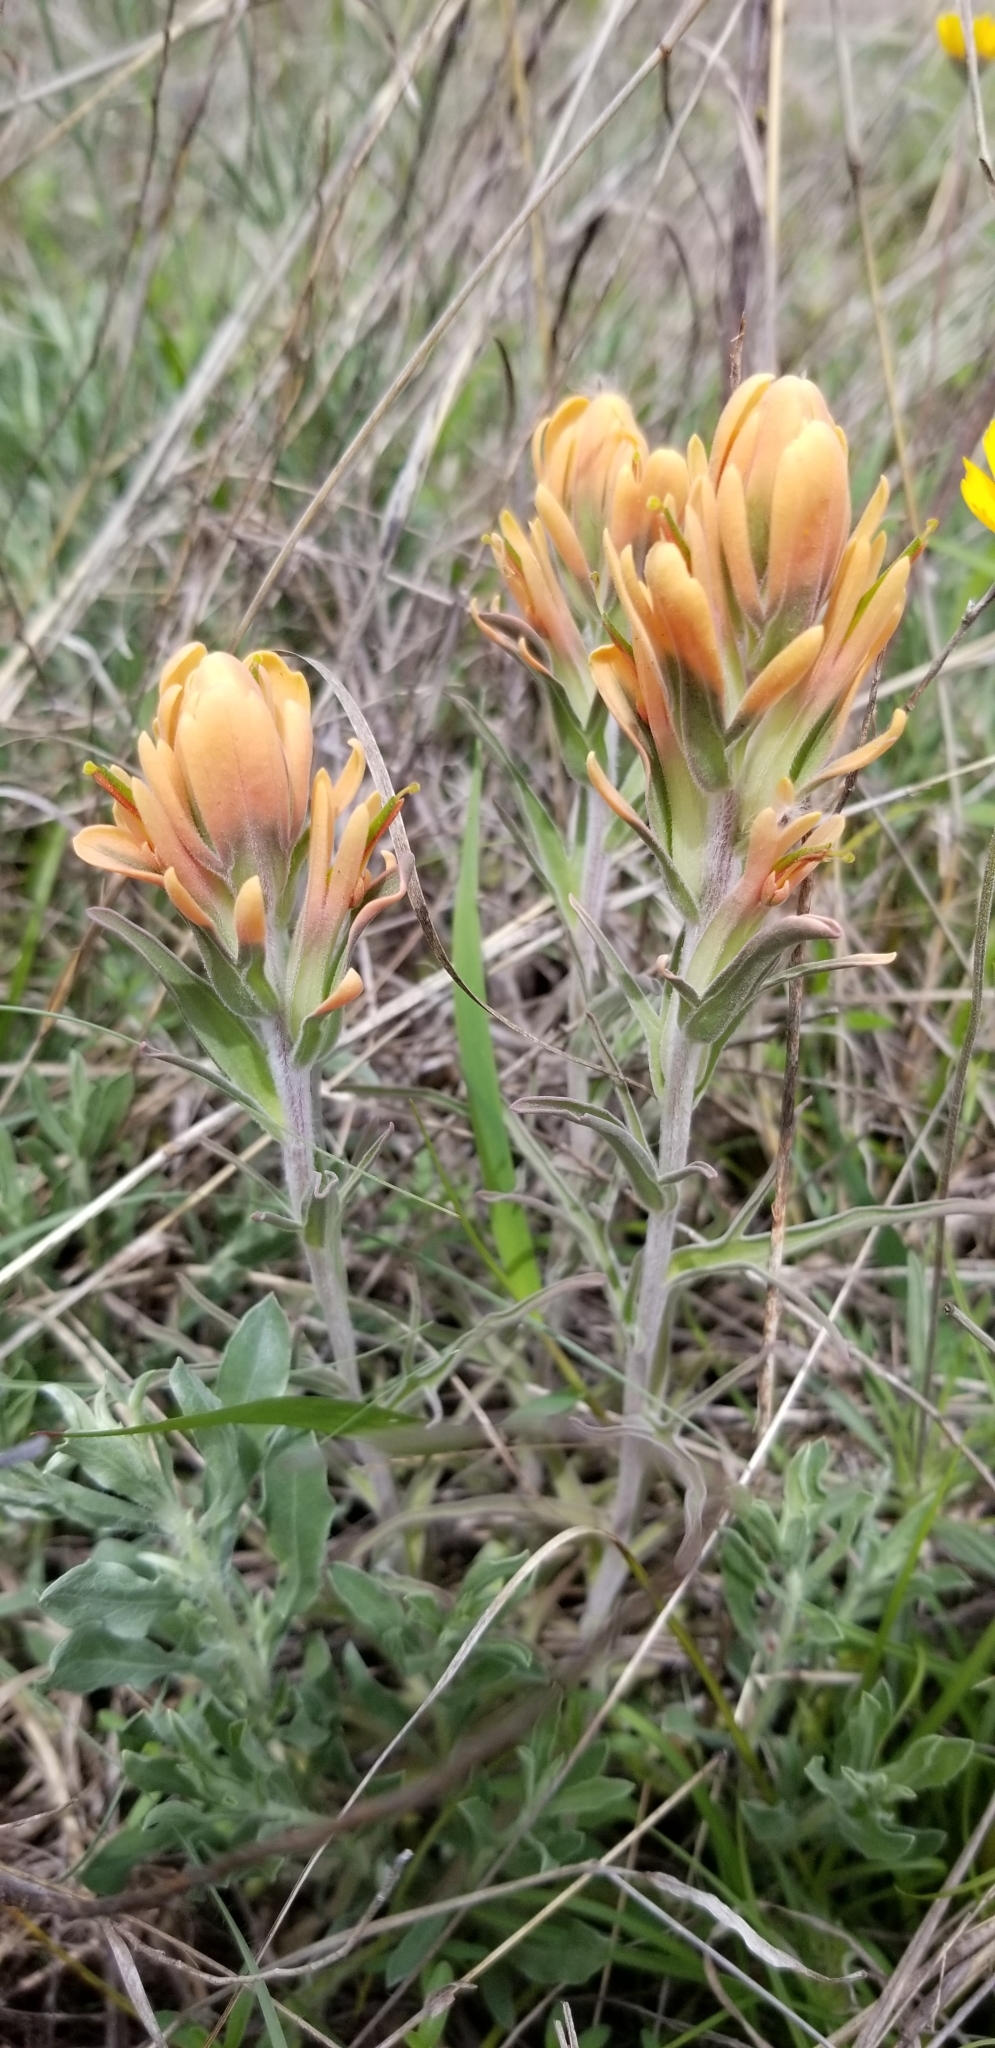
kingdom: Plantae
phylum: Tracheophyta
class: Magnoliopsida
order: Lamiales
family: Orobanchaceae
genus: Castilleja
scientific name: Castilleja lindheimeri
